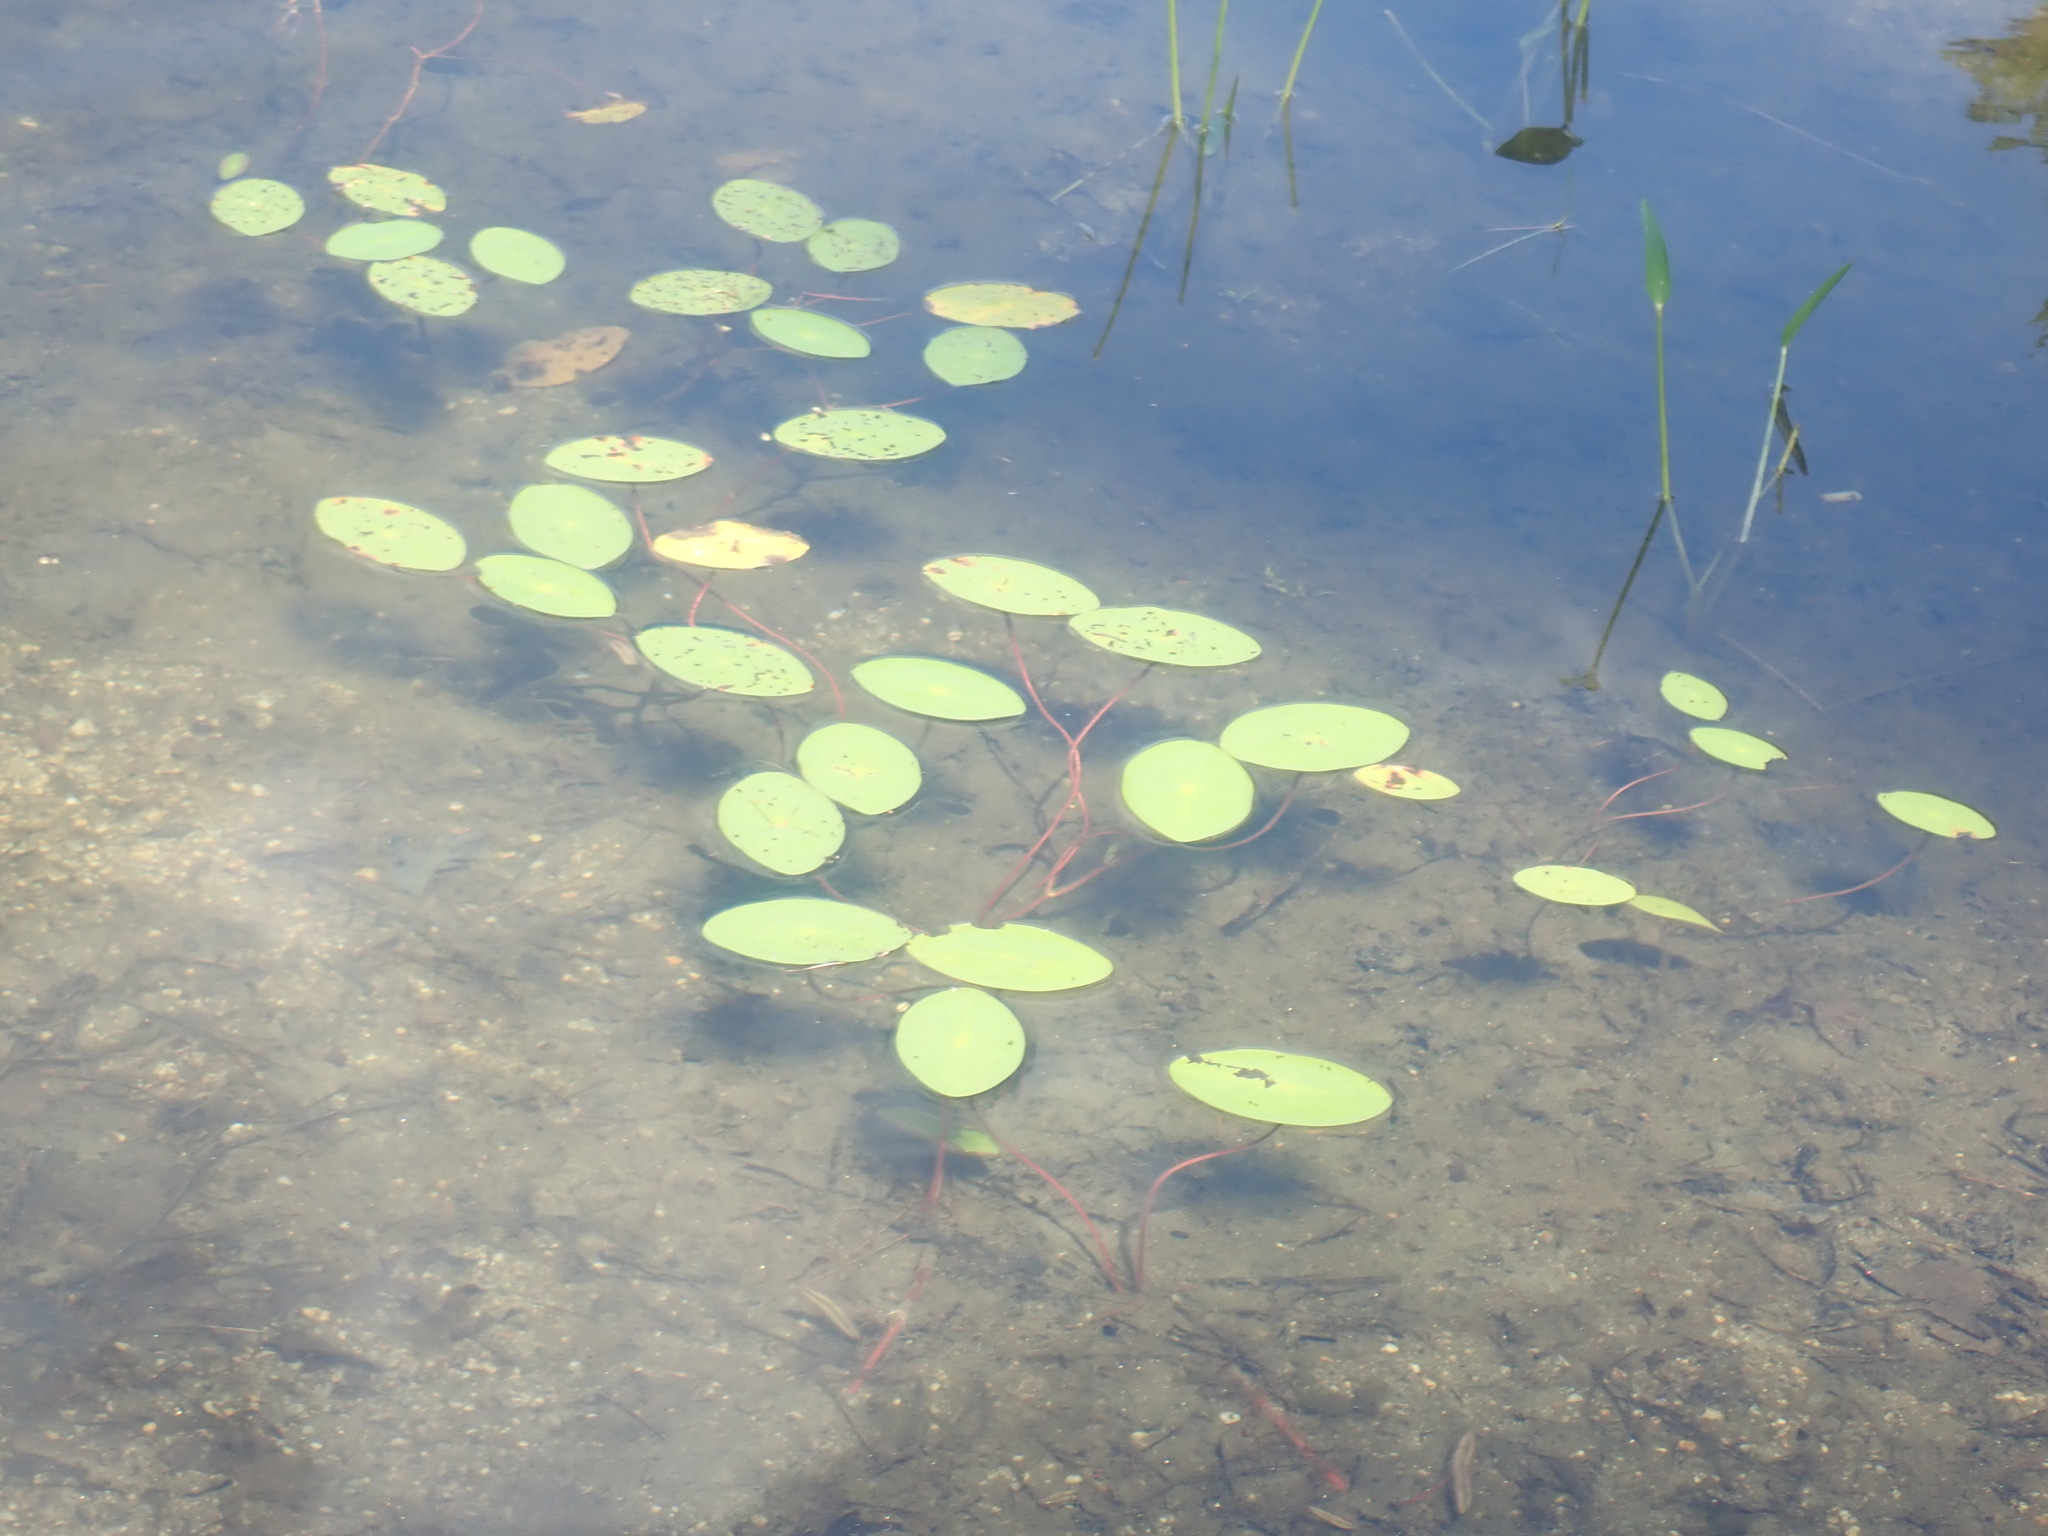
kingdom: Plantae
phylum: Tracheophyta
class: Magnoliopsida
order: Nymphaeales
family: Cabombaceae
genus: Brasenia
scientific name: Brasenia schreberi
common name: Water-shield
